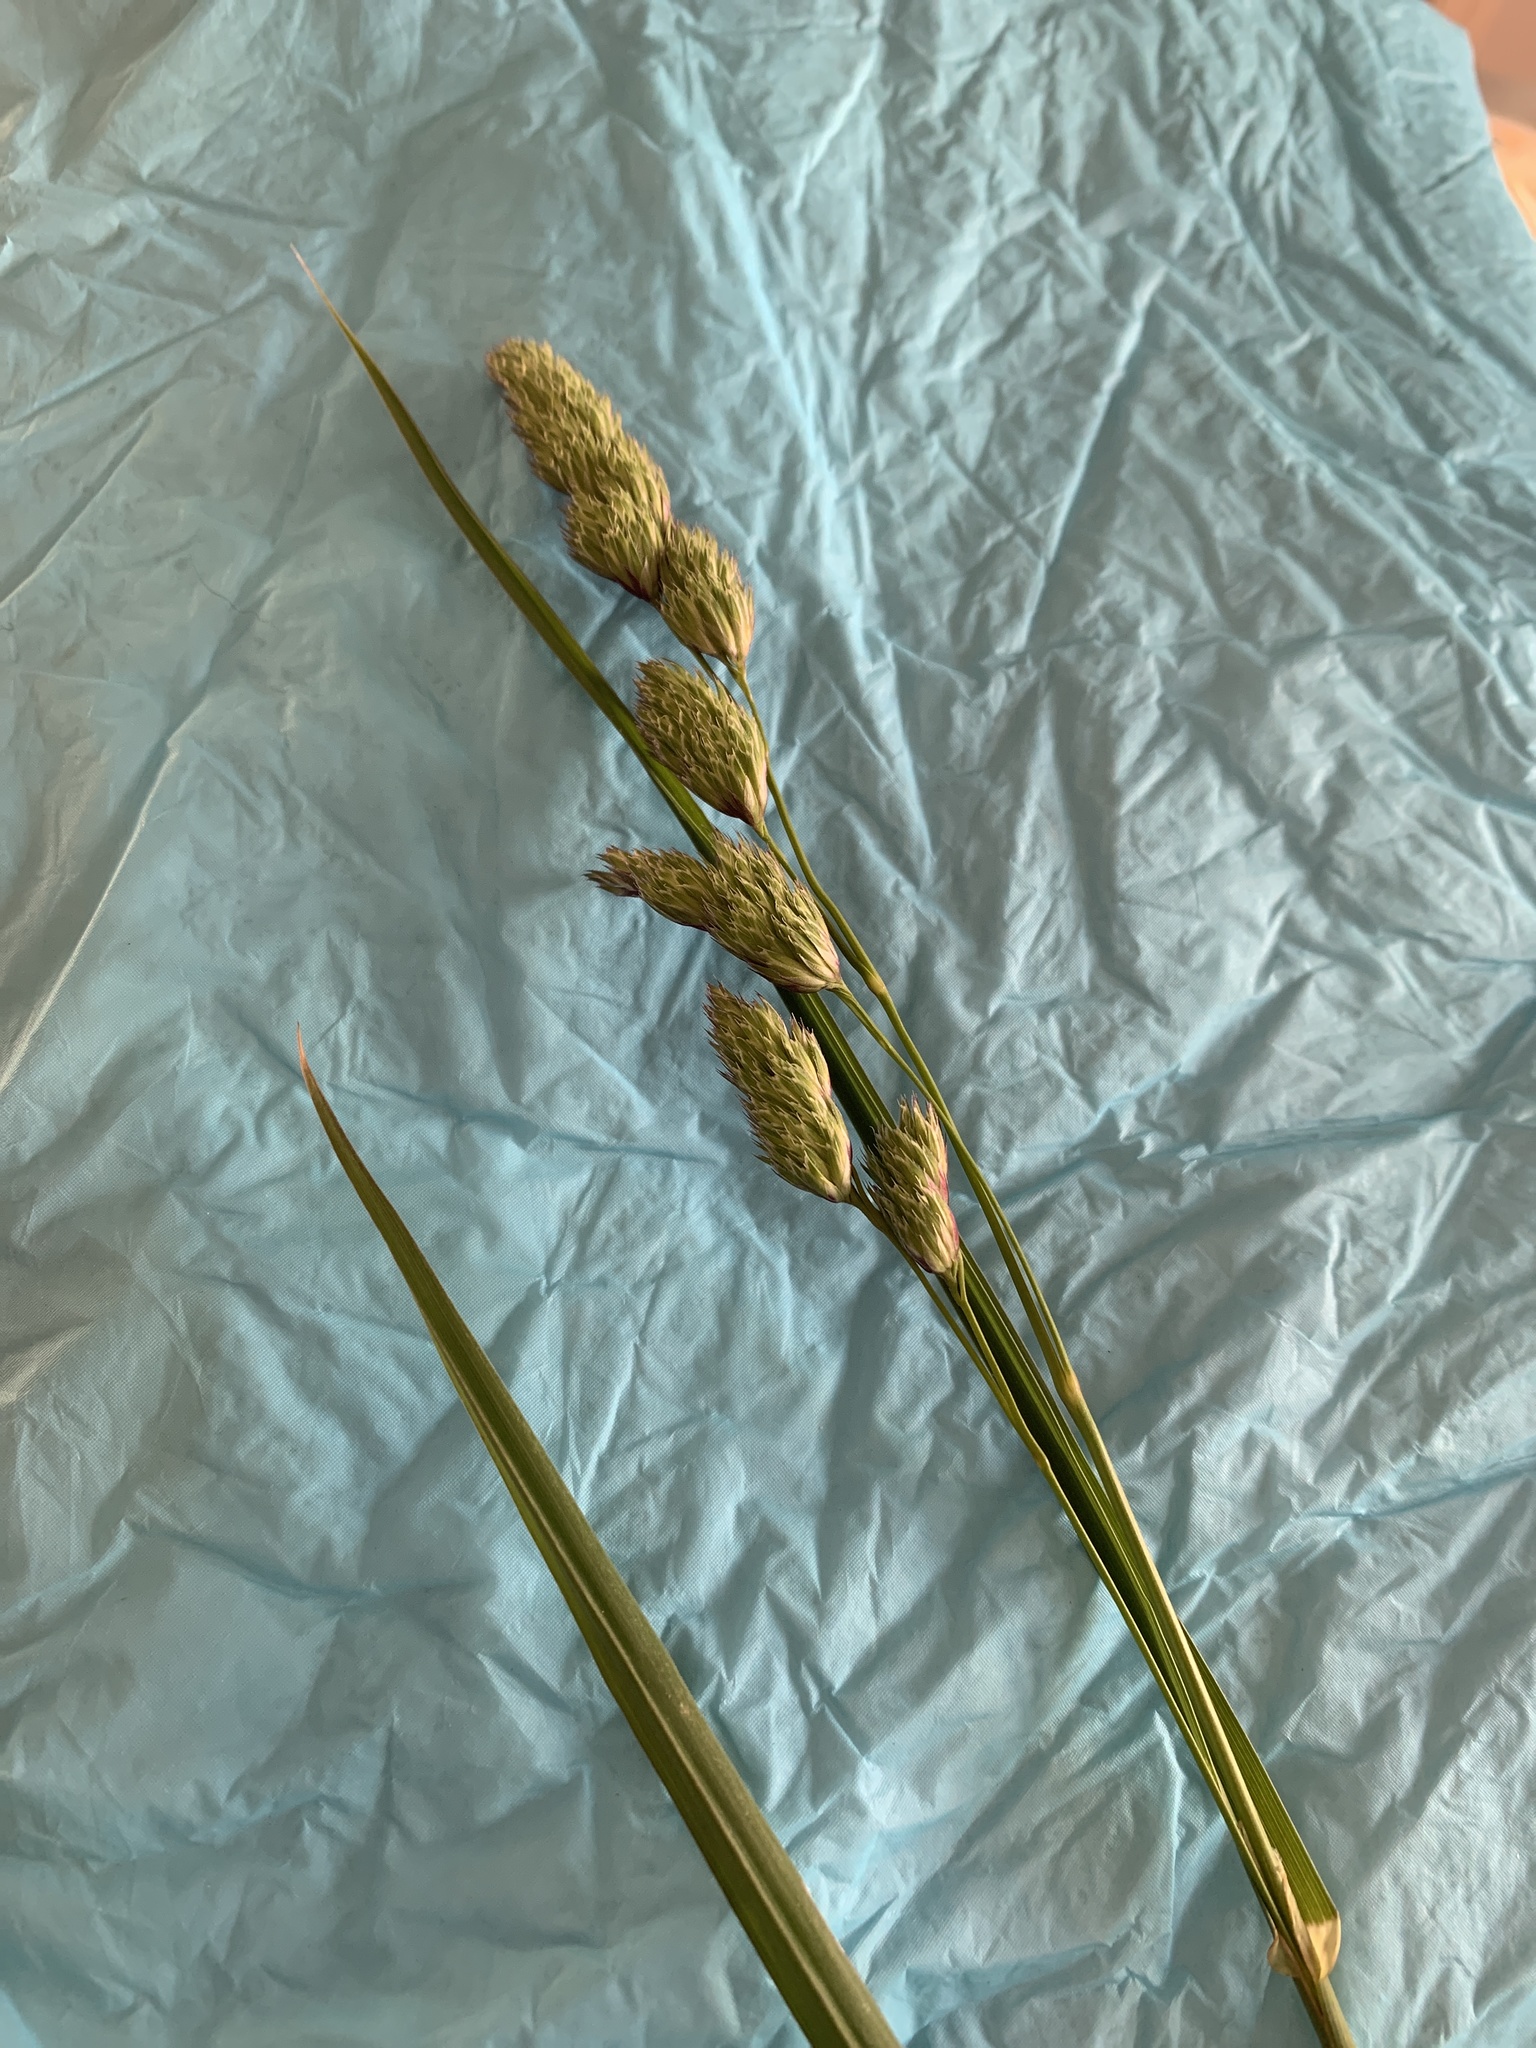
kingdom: Plantae
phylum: Tracheophyta
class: Liliopsida
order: Poales
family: Poaceae
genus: Dactylis
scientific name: Dactylis glomerata
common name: Orchardgrass
